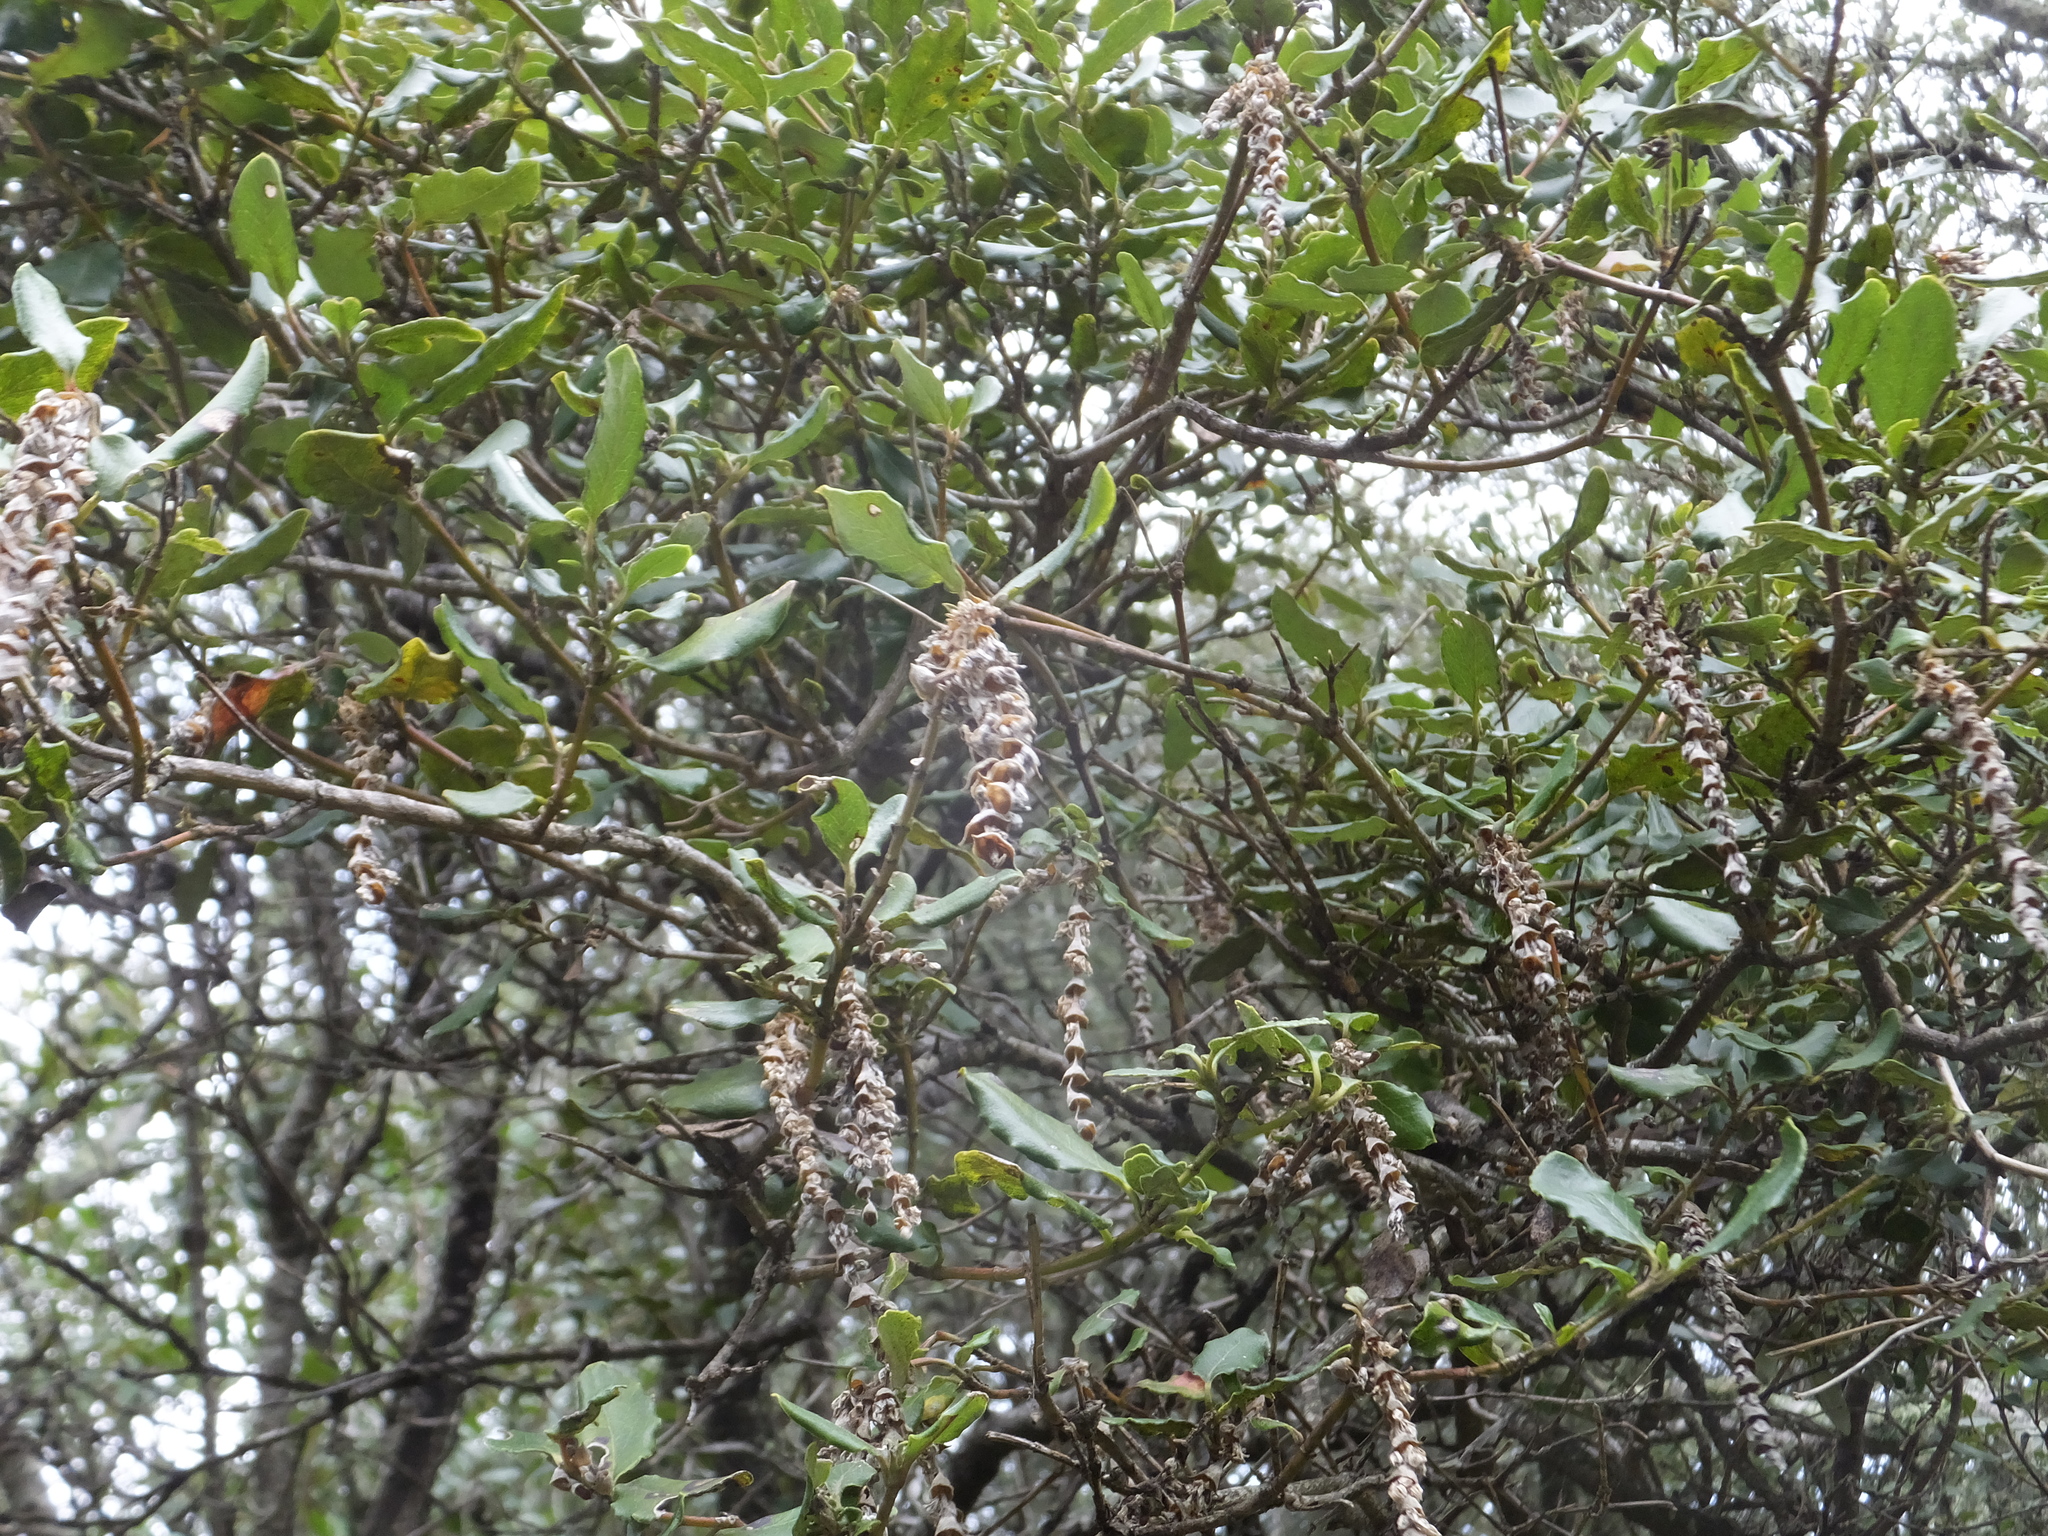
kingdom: Plantae
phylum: Tracheophyta
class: Magnoliopsida
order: Garryales
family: Garryaceae
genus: Garrya
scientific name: Garrya elliptica
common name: Silk-tassel
